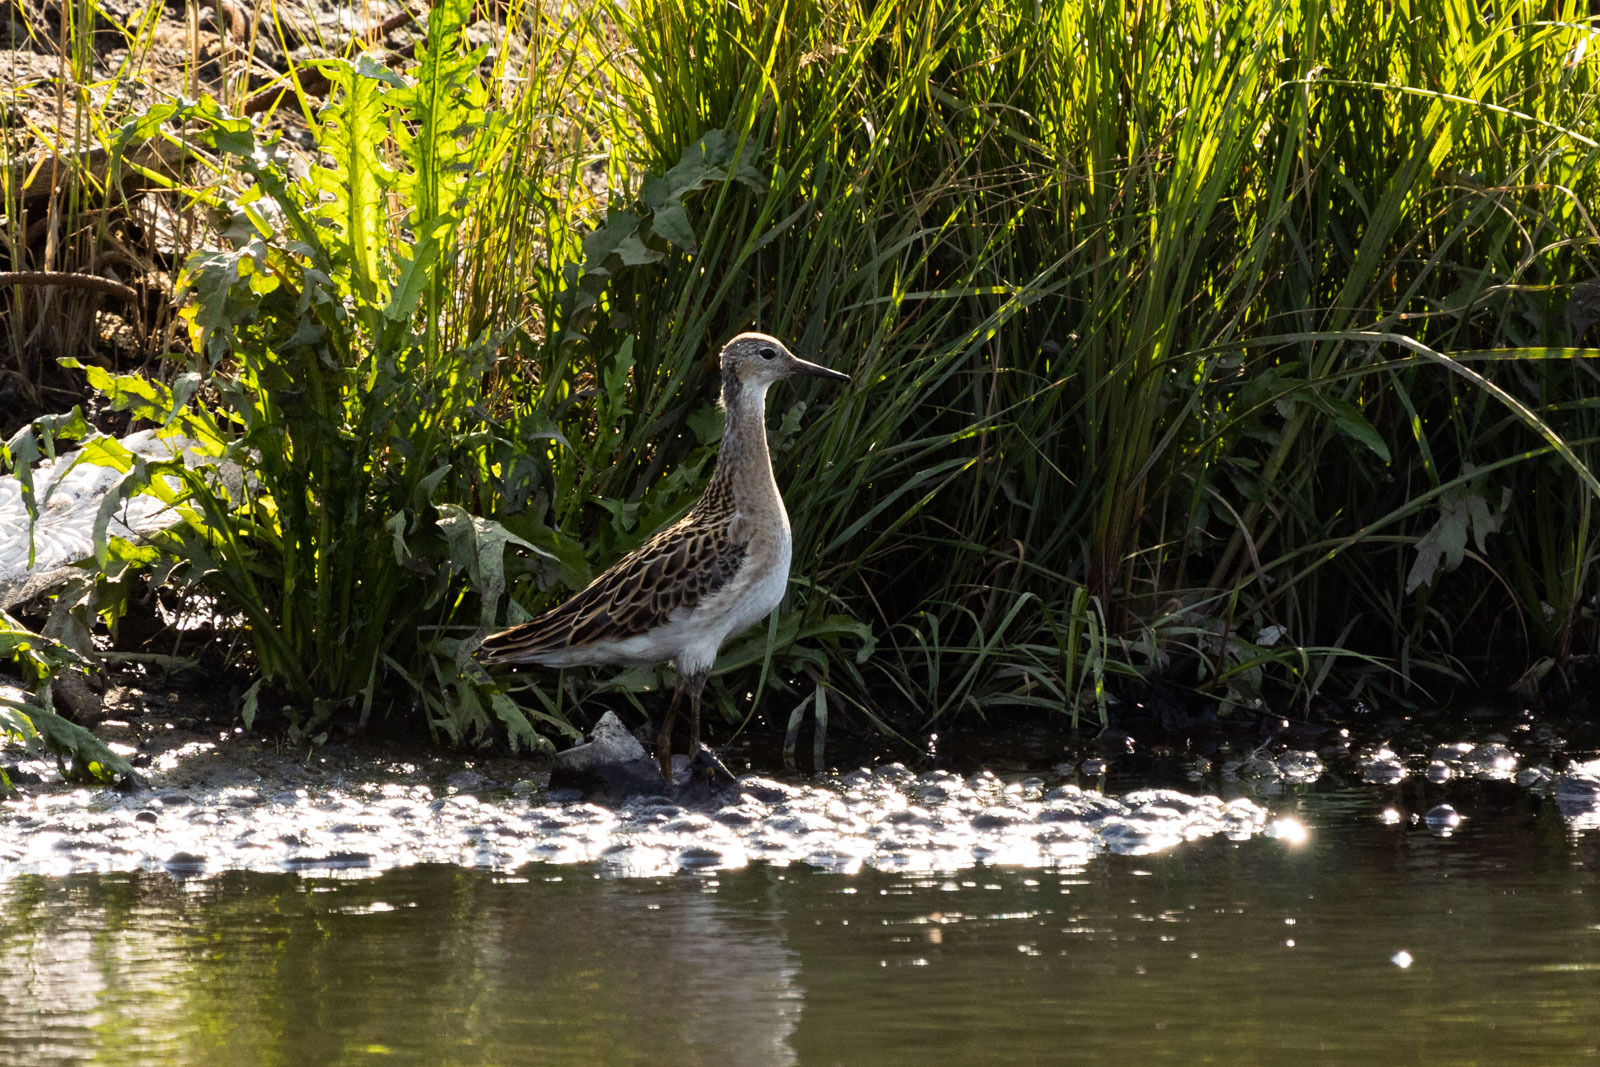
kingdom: Animalia
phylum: Chordata
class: Aves
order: Charadriiformes
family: Scolopacidae
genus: Calidris
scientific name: Calidris pugnax
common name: Ruff
